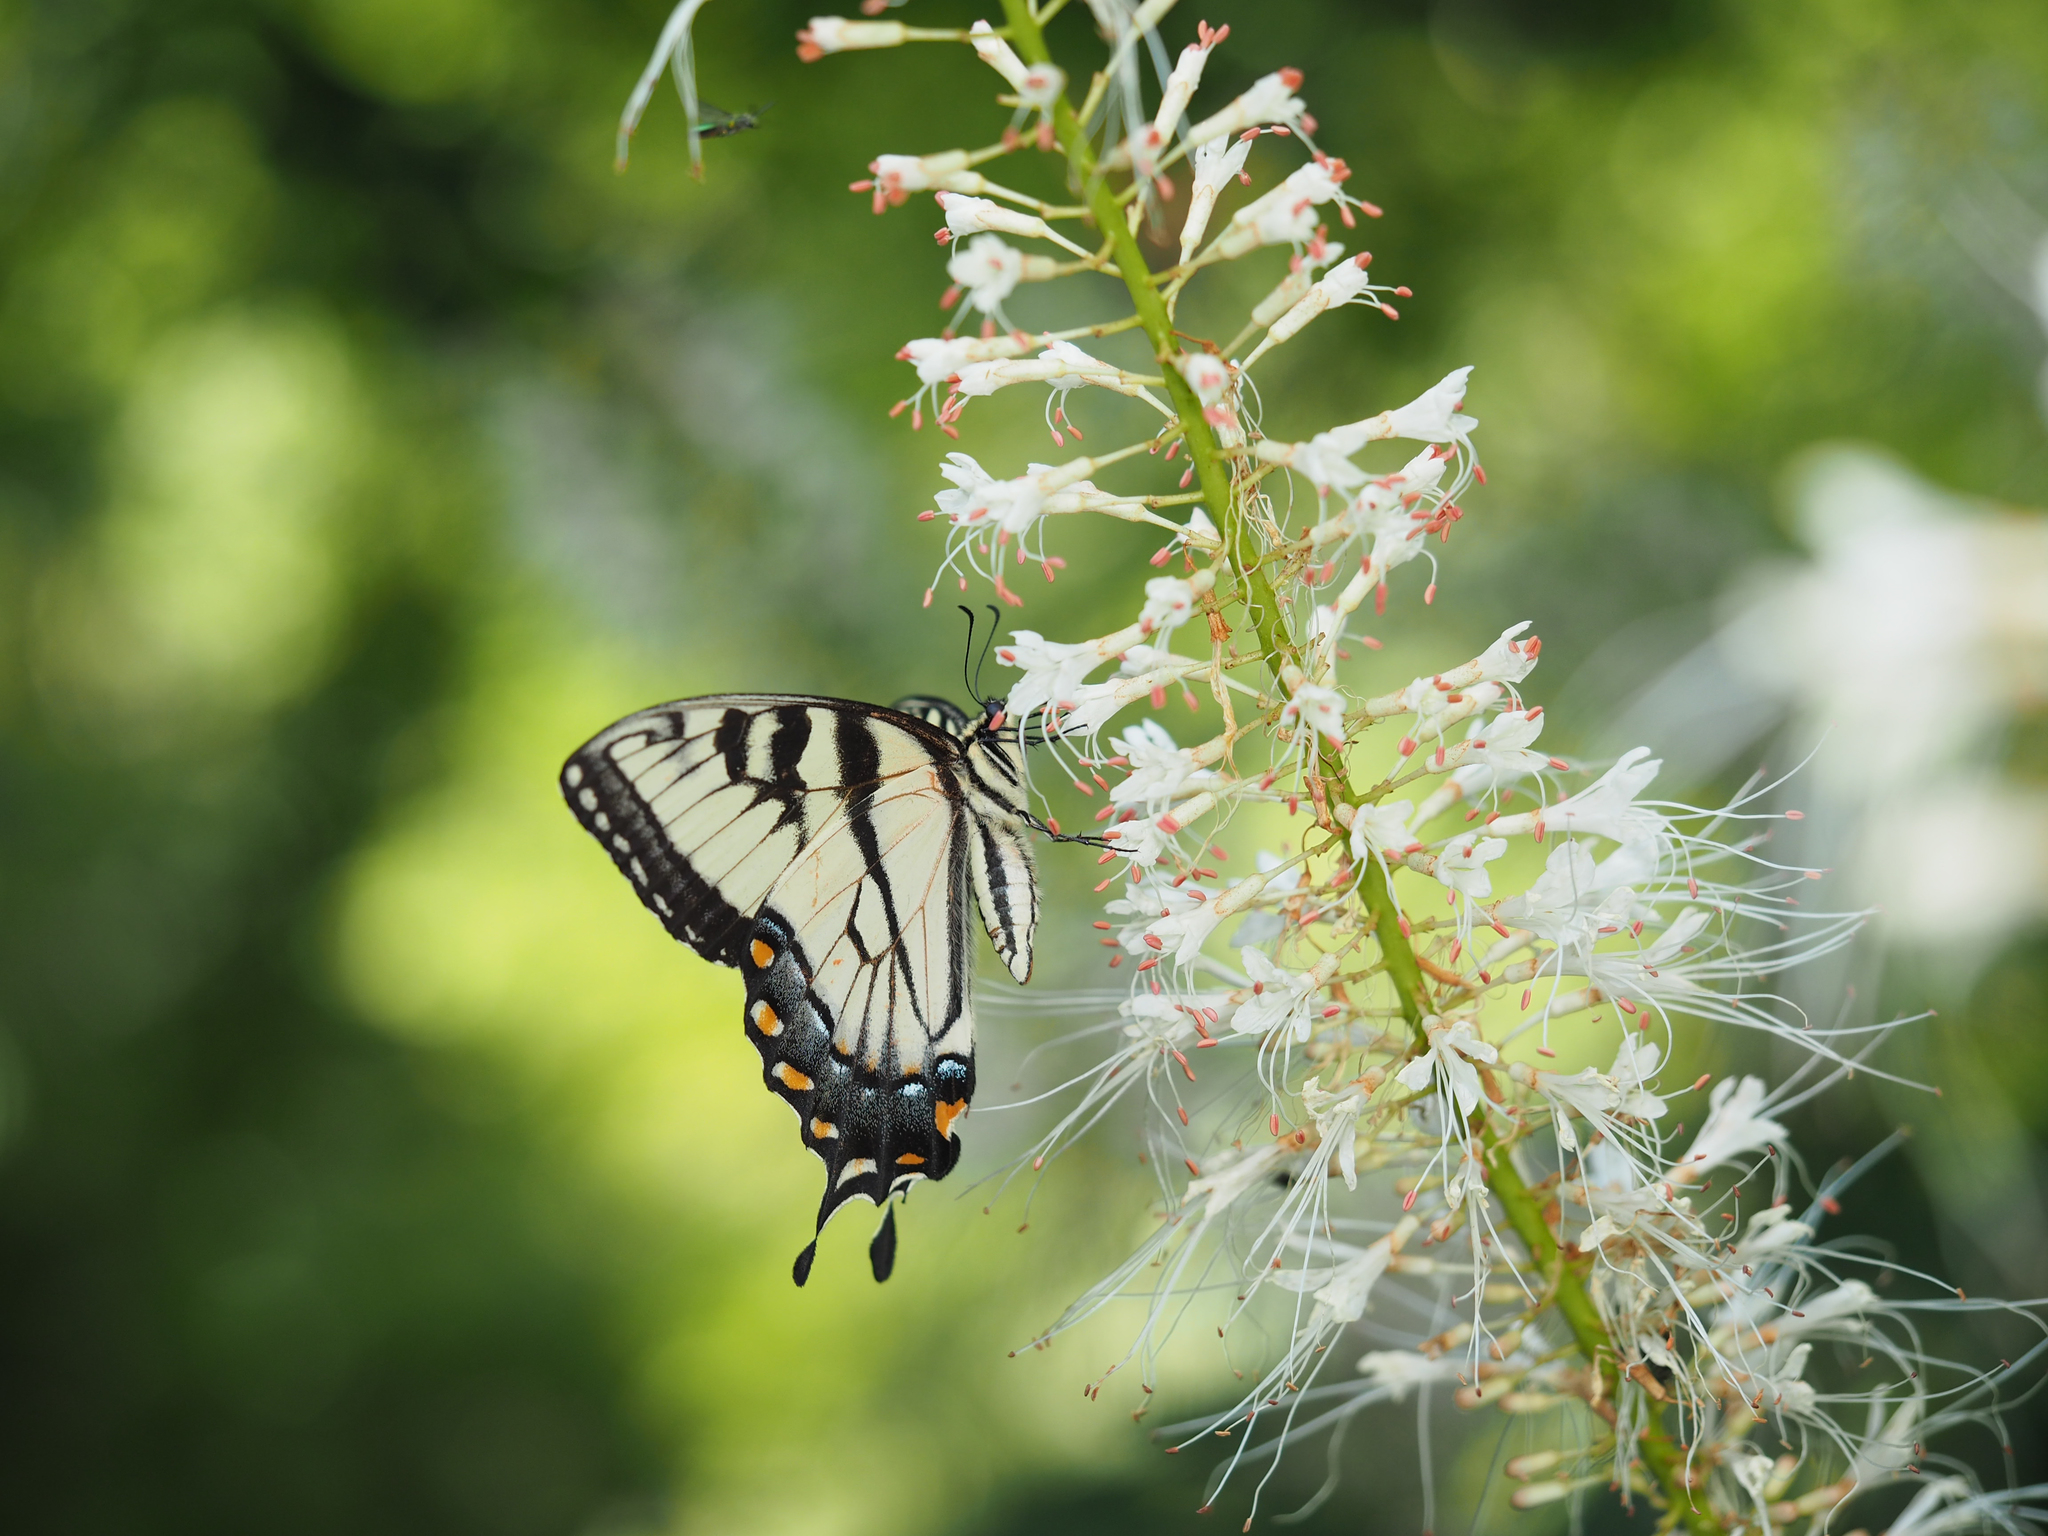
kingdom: Animalia
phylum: Arthropoda
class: Insecta
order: Lepidoptera
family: Papilionidae
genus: Papilio
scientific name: Papilio glaucus
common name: Tiger swallowtail
